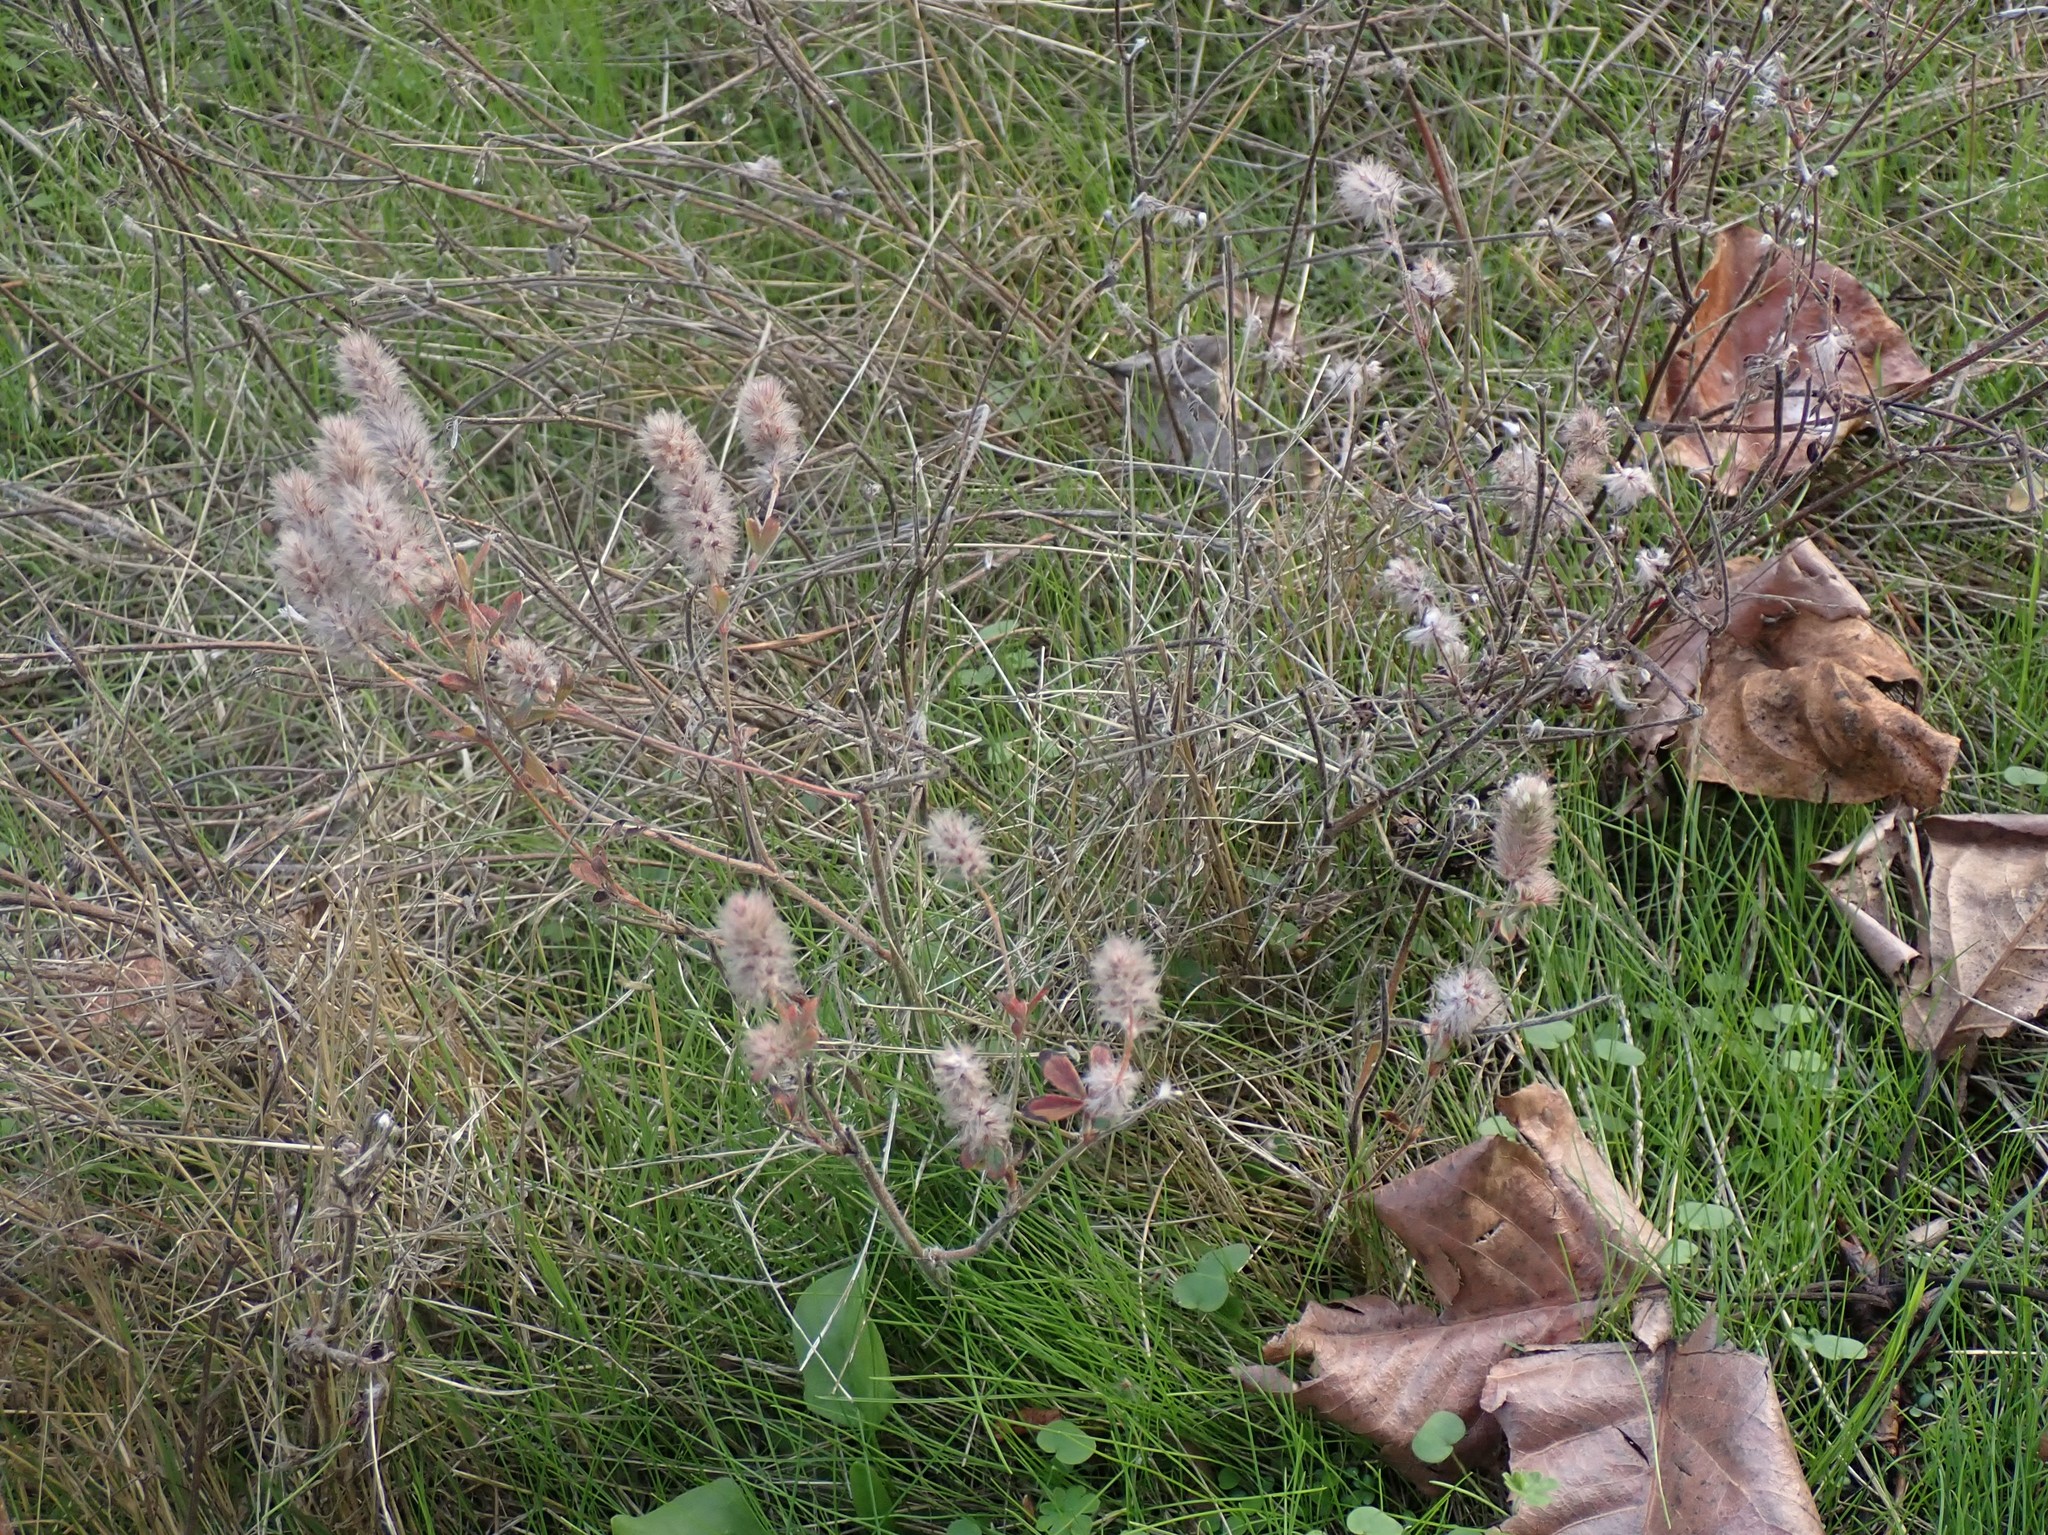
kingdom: Plantae
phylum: Tracheophyta
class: Magnoliopsida
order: Fabales
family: Fabaceae
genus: Trifolium
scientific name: Trifolium arvense
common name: Hare's-foot clover
